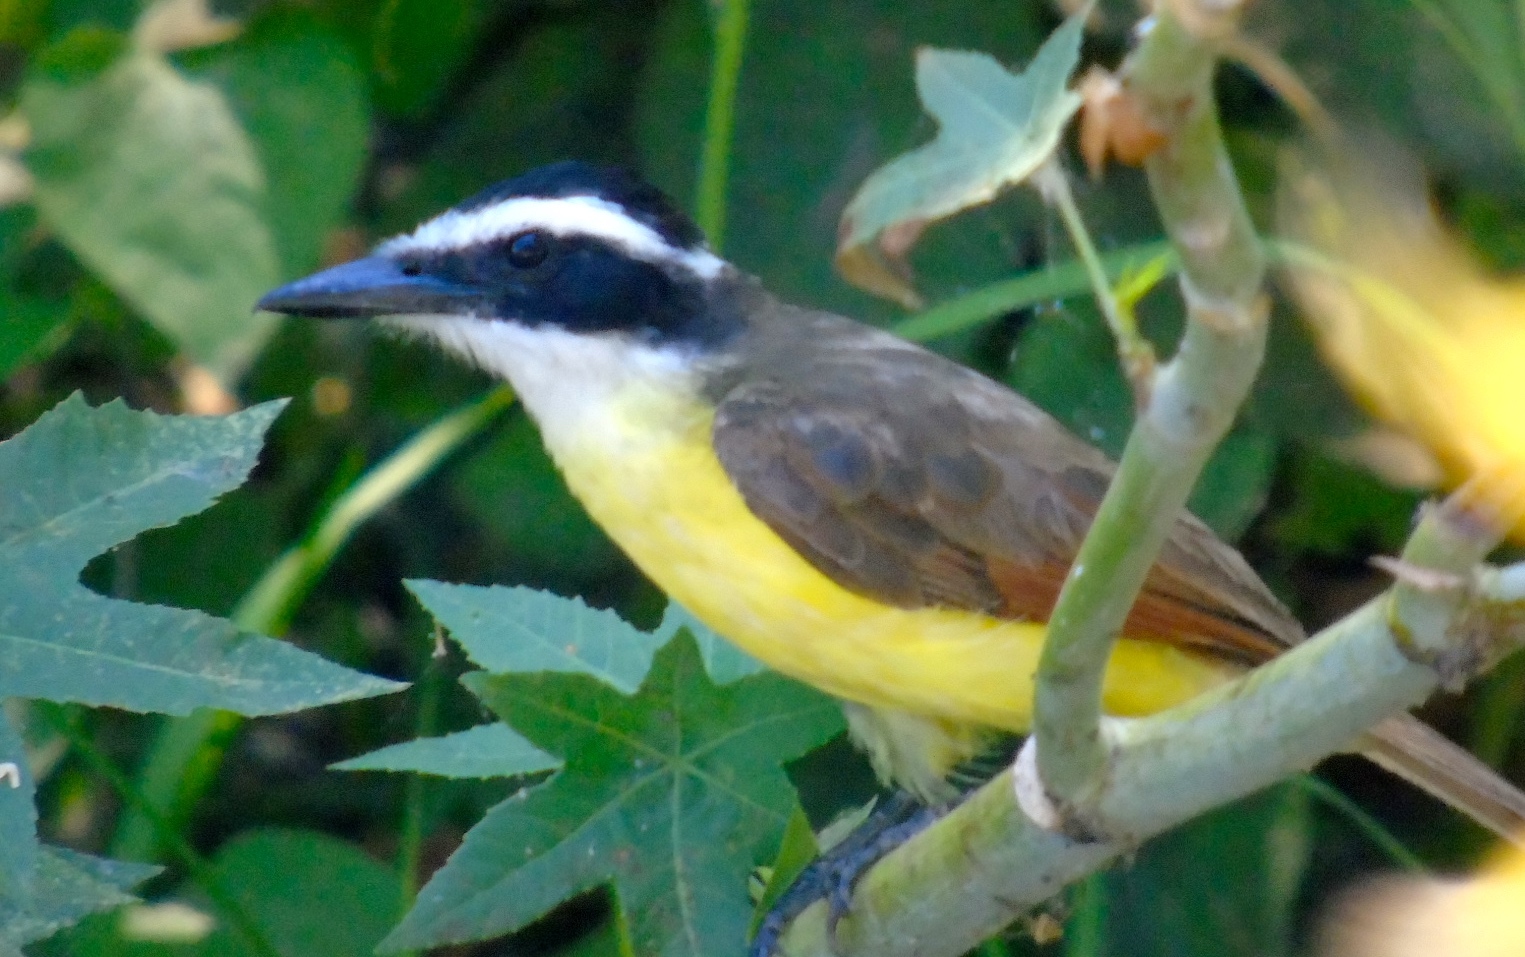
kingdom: Animalia
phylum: Chordata
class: Aves
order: Passeriformes
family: Tyrannidae
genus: Pitangus
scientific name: Pitangus sulphuratus
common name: Great kiskadee
